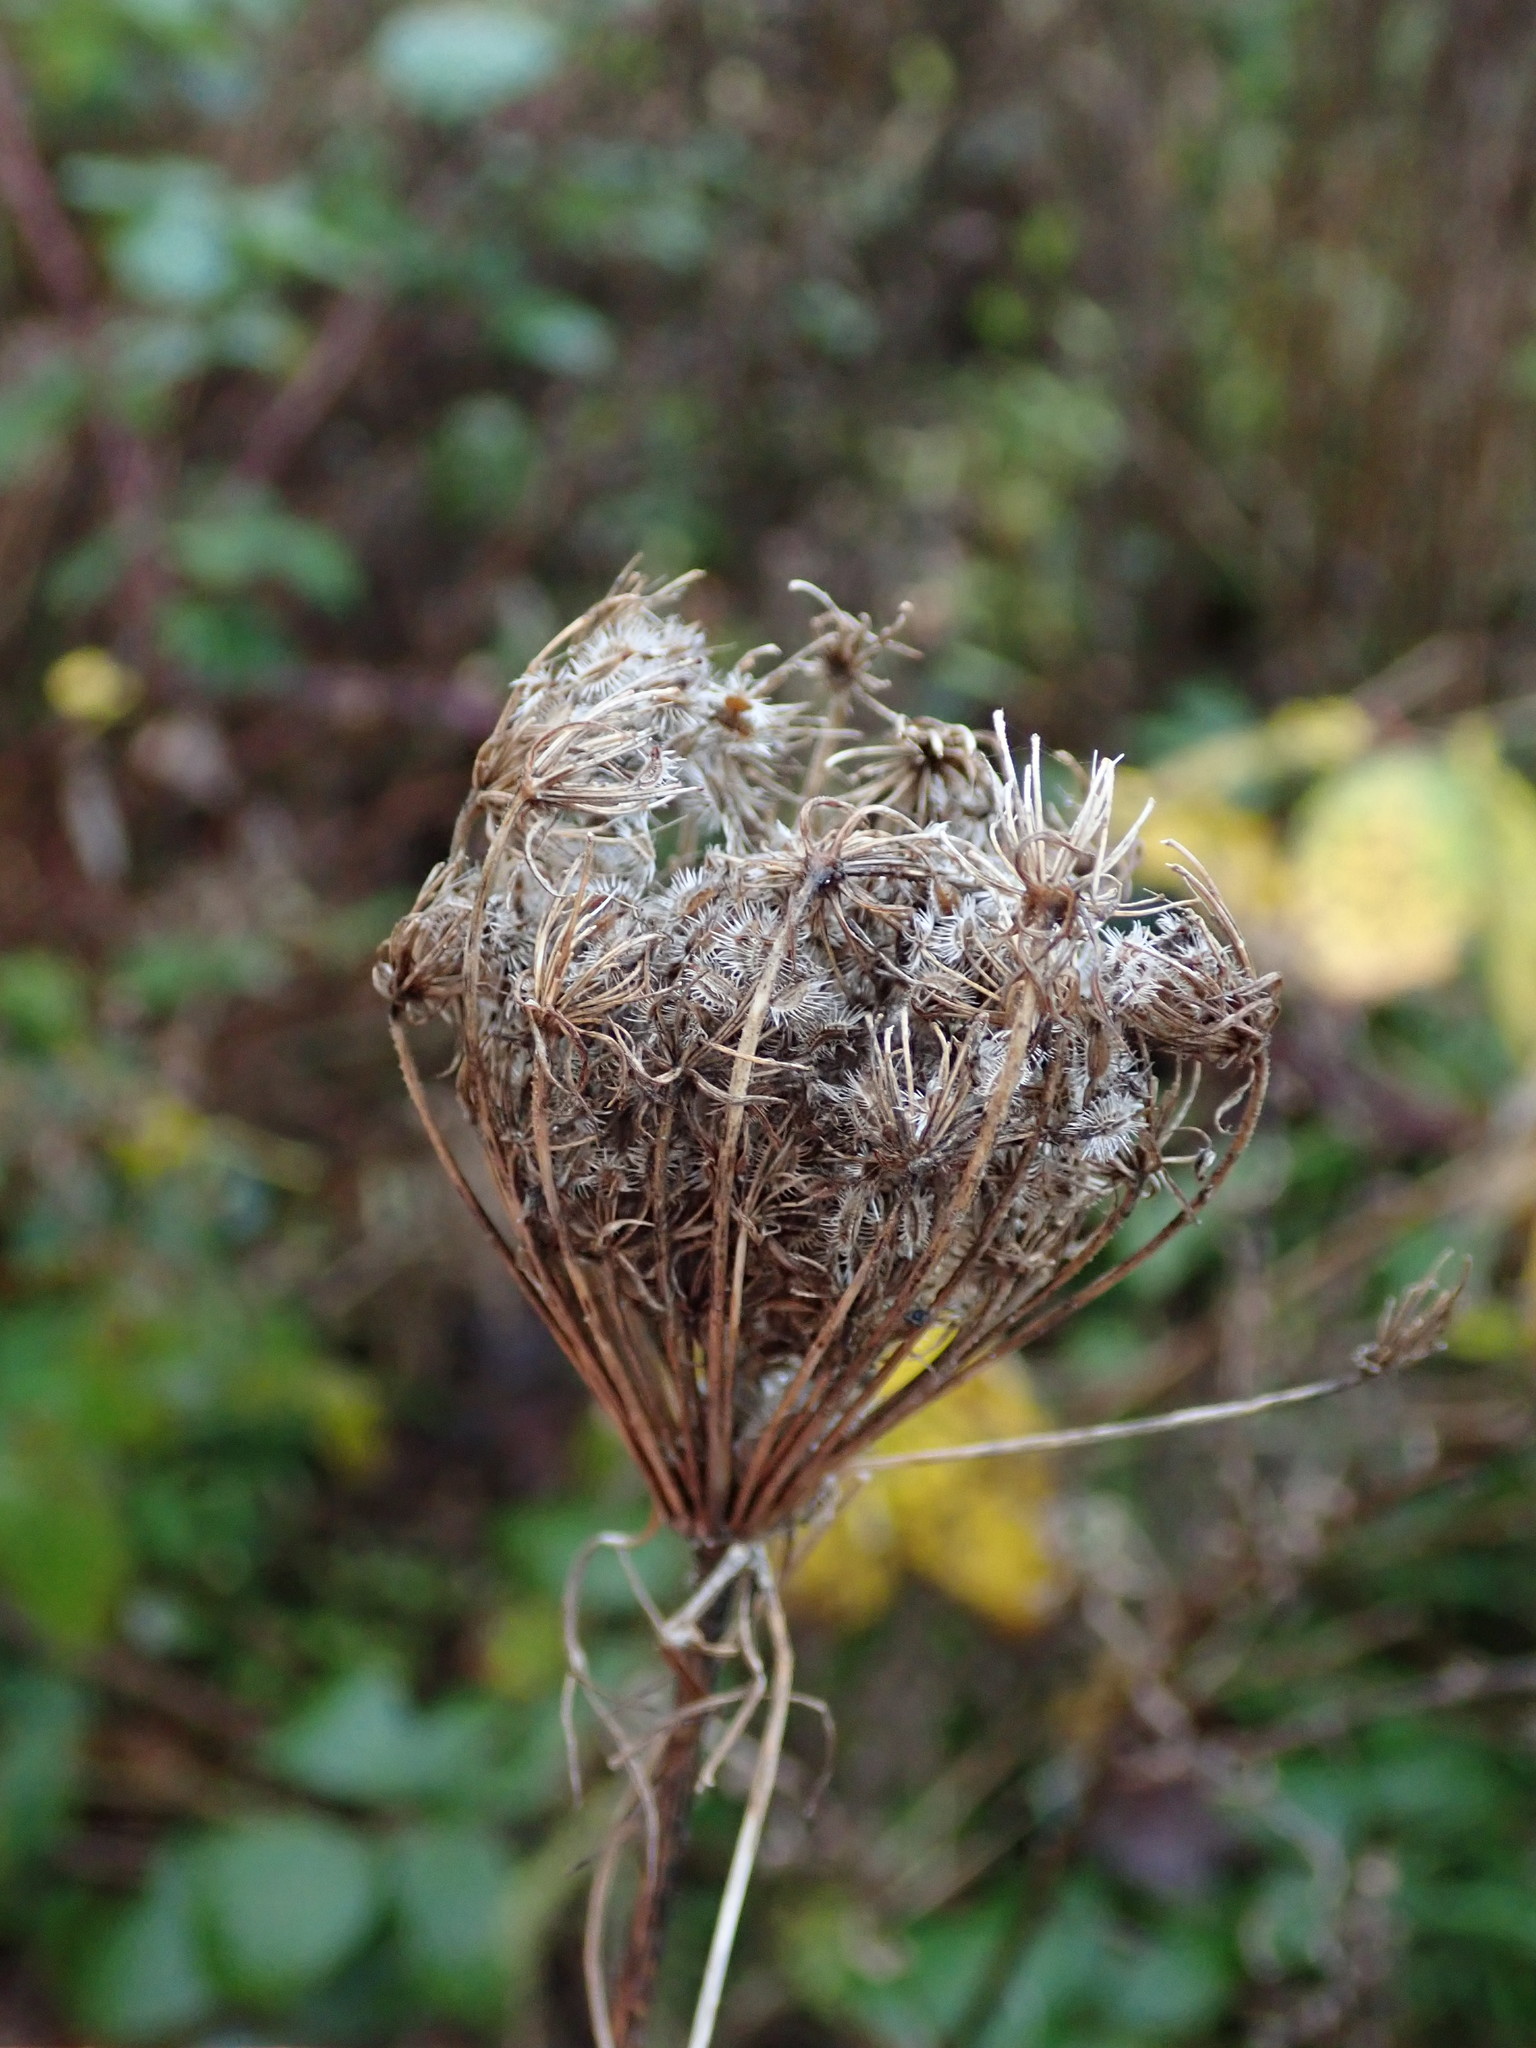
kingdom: Plantae
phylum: Tracheophyta
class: Magnoliopsida
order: Apiales
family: Apiaceae
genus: Daucus
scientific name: Daucus carota
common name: Wild carrot
